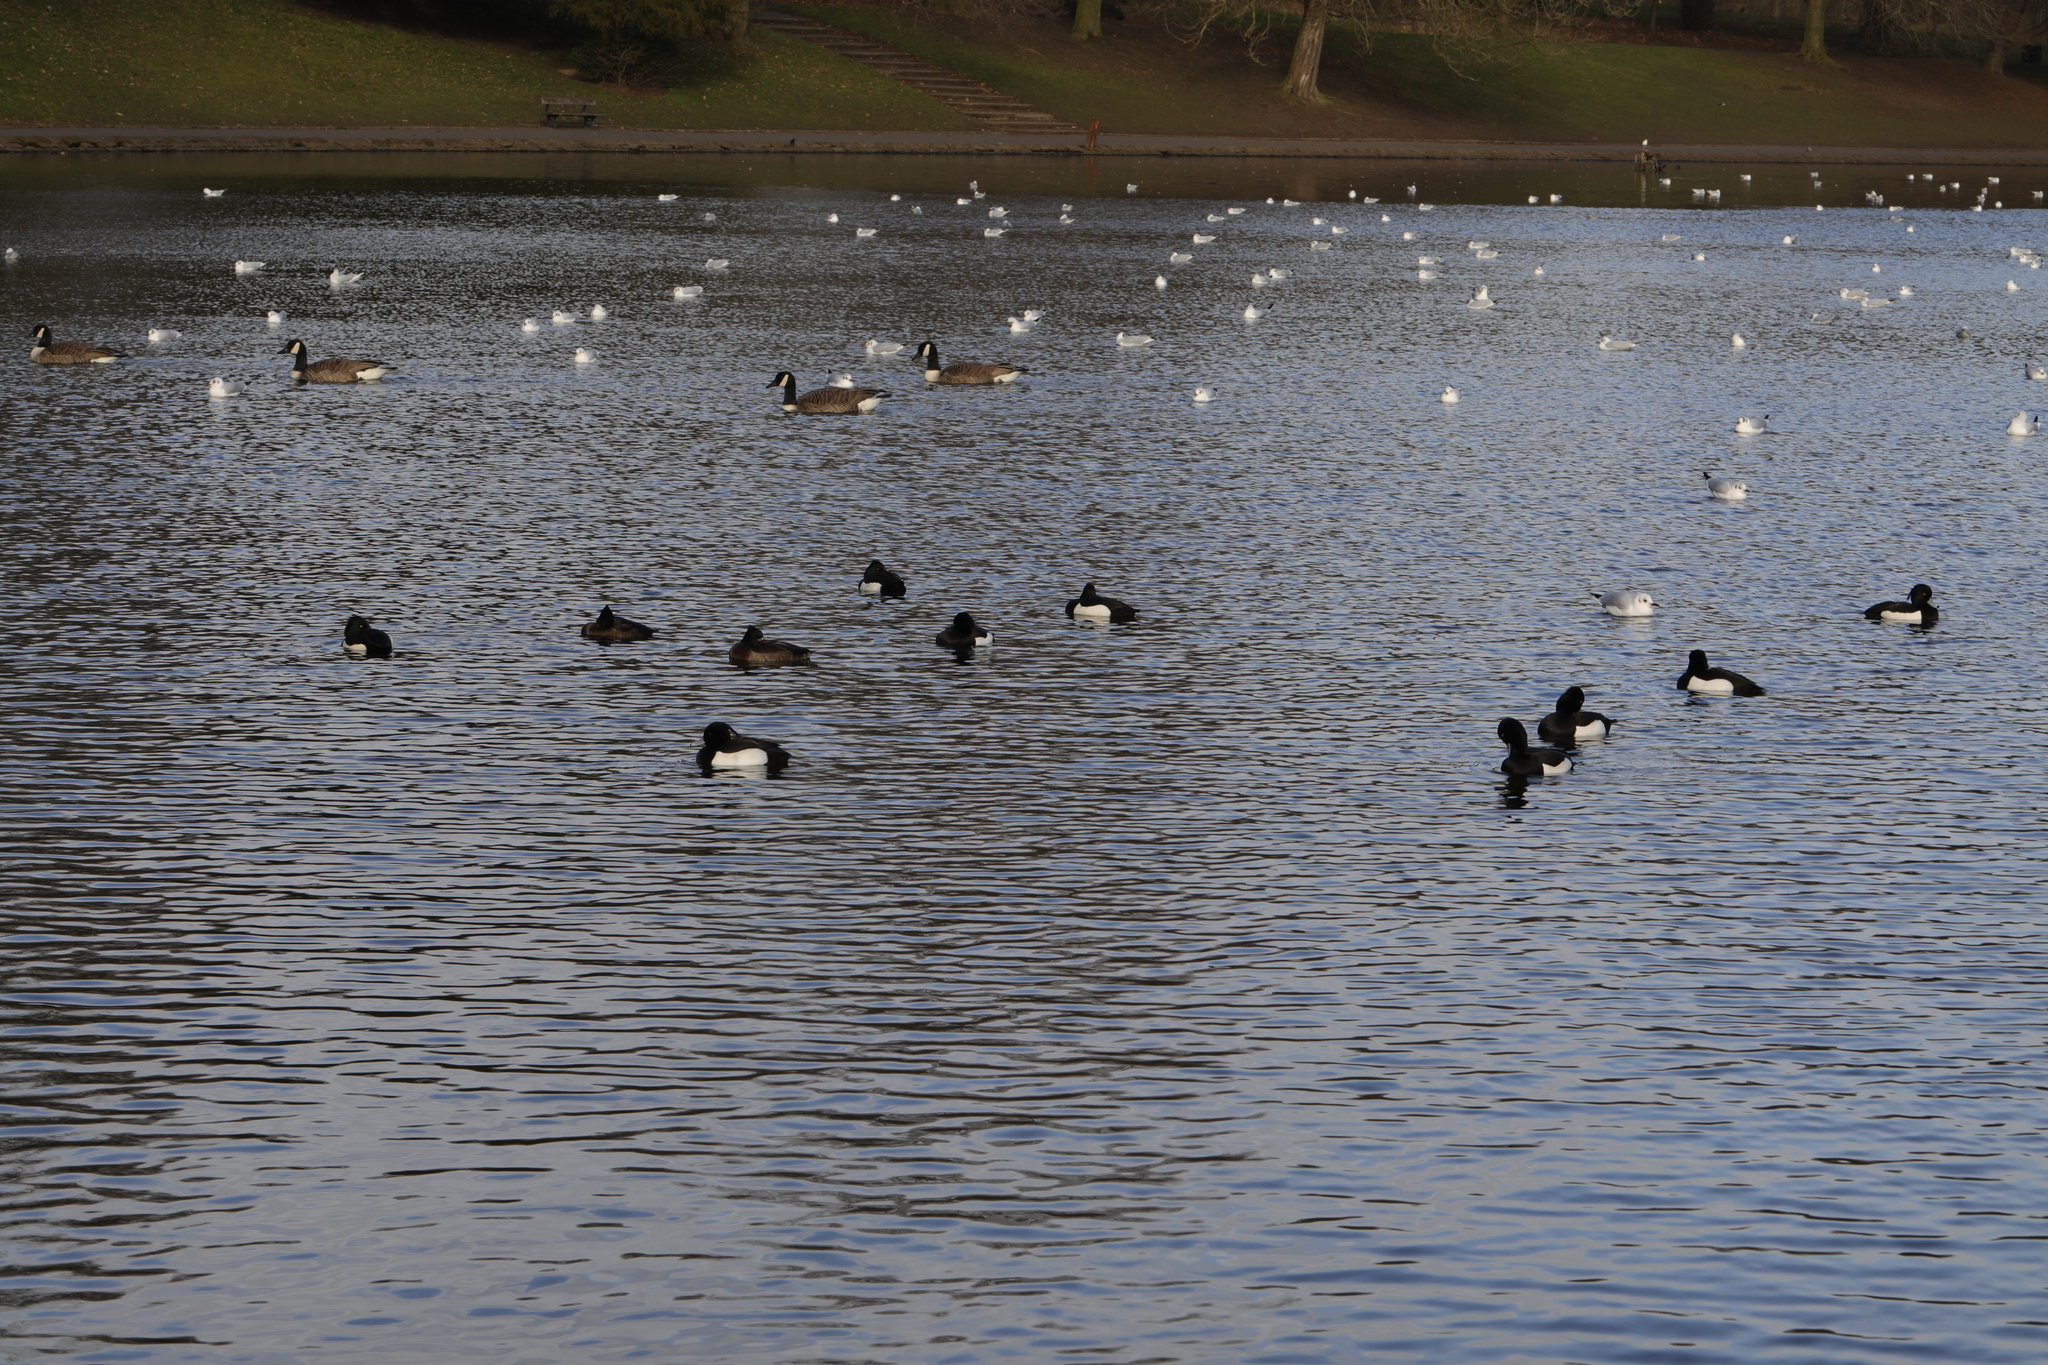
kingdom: Animalia
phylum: Chordata
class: Aves
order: Anseriformes
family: Anatidae
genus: Aythya
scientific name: Aythya fuligula
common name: Tufted duck
